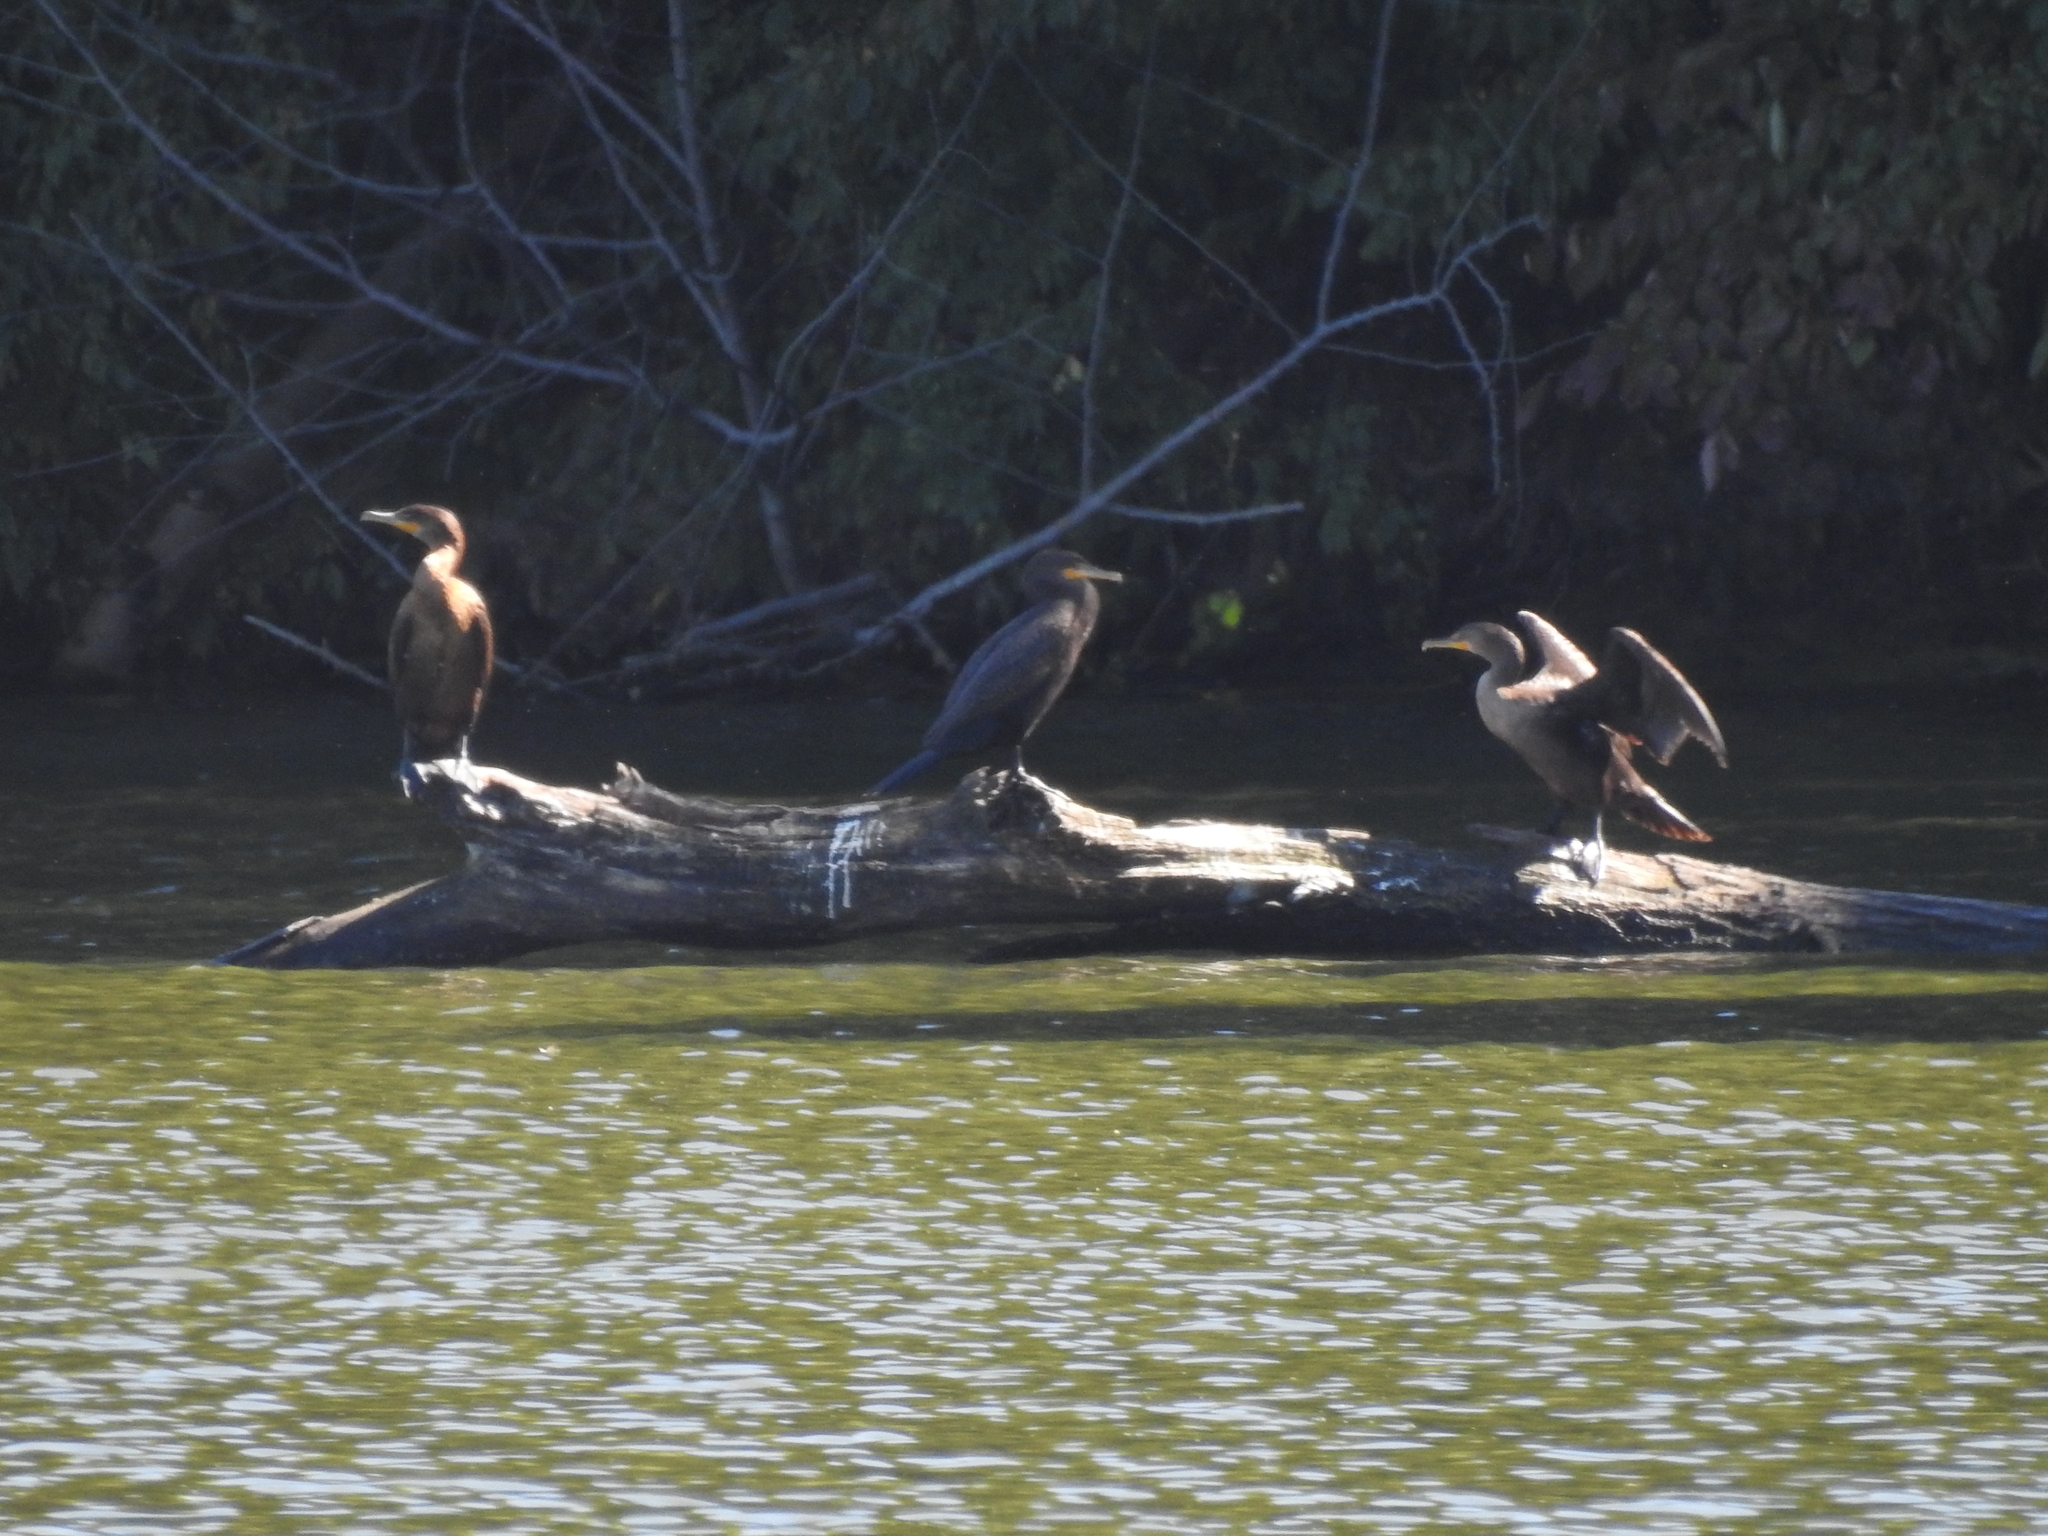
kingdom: Animalia
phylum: Chordata
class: Aves
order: Suliformes
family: Phalacrocoracidae
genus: Phalacrocorax
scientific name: Phalacrocorax auritus
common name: Double-crested cormorant
